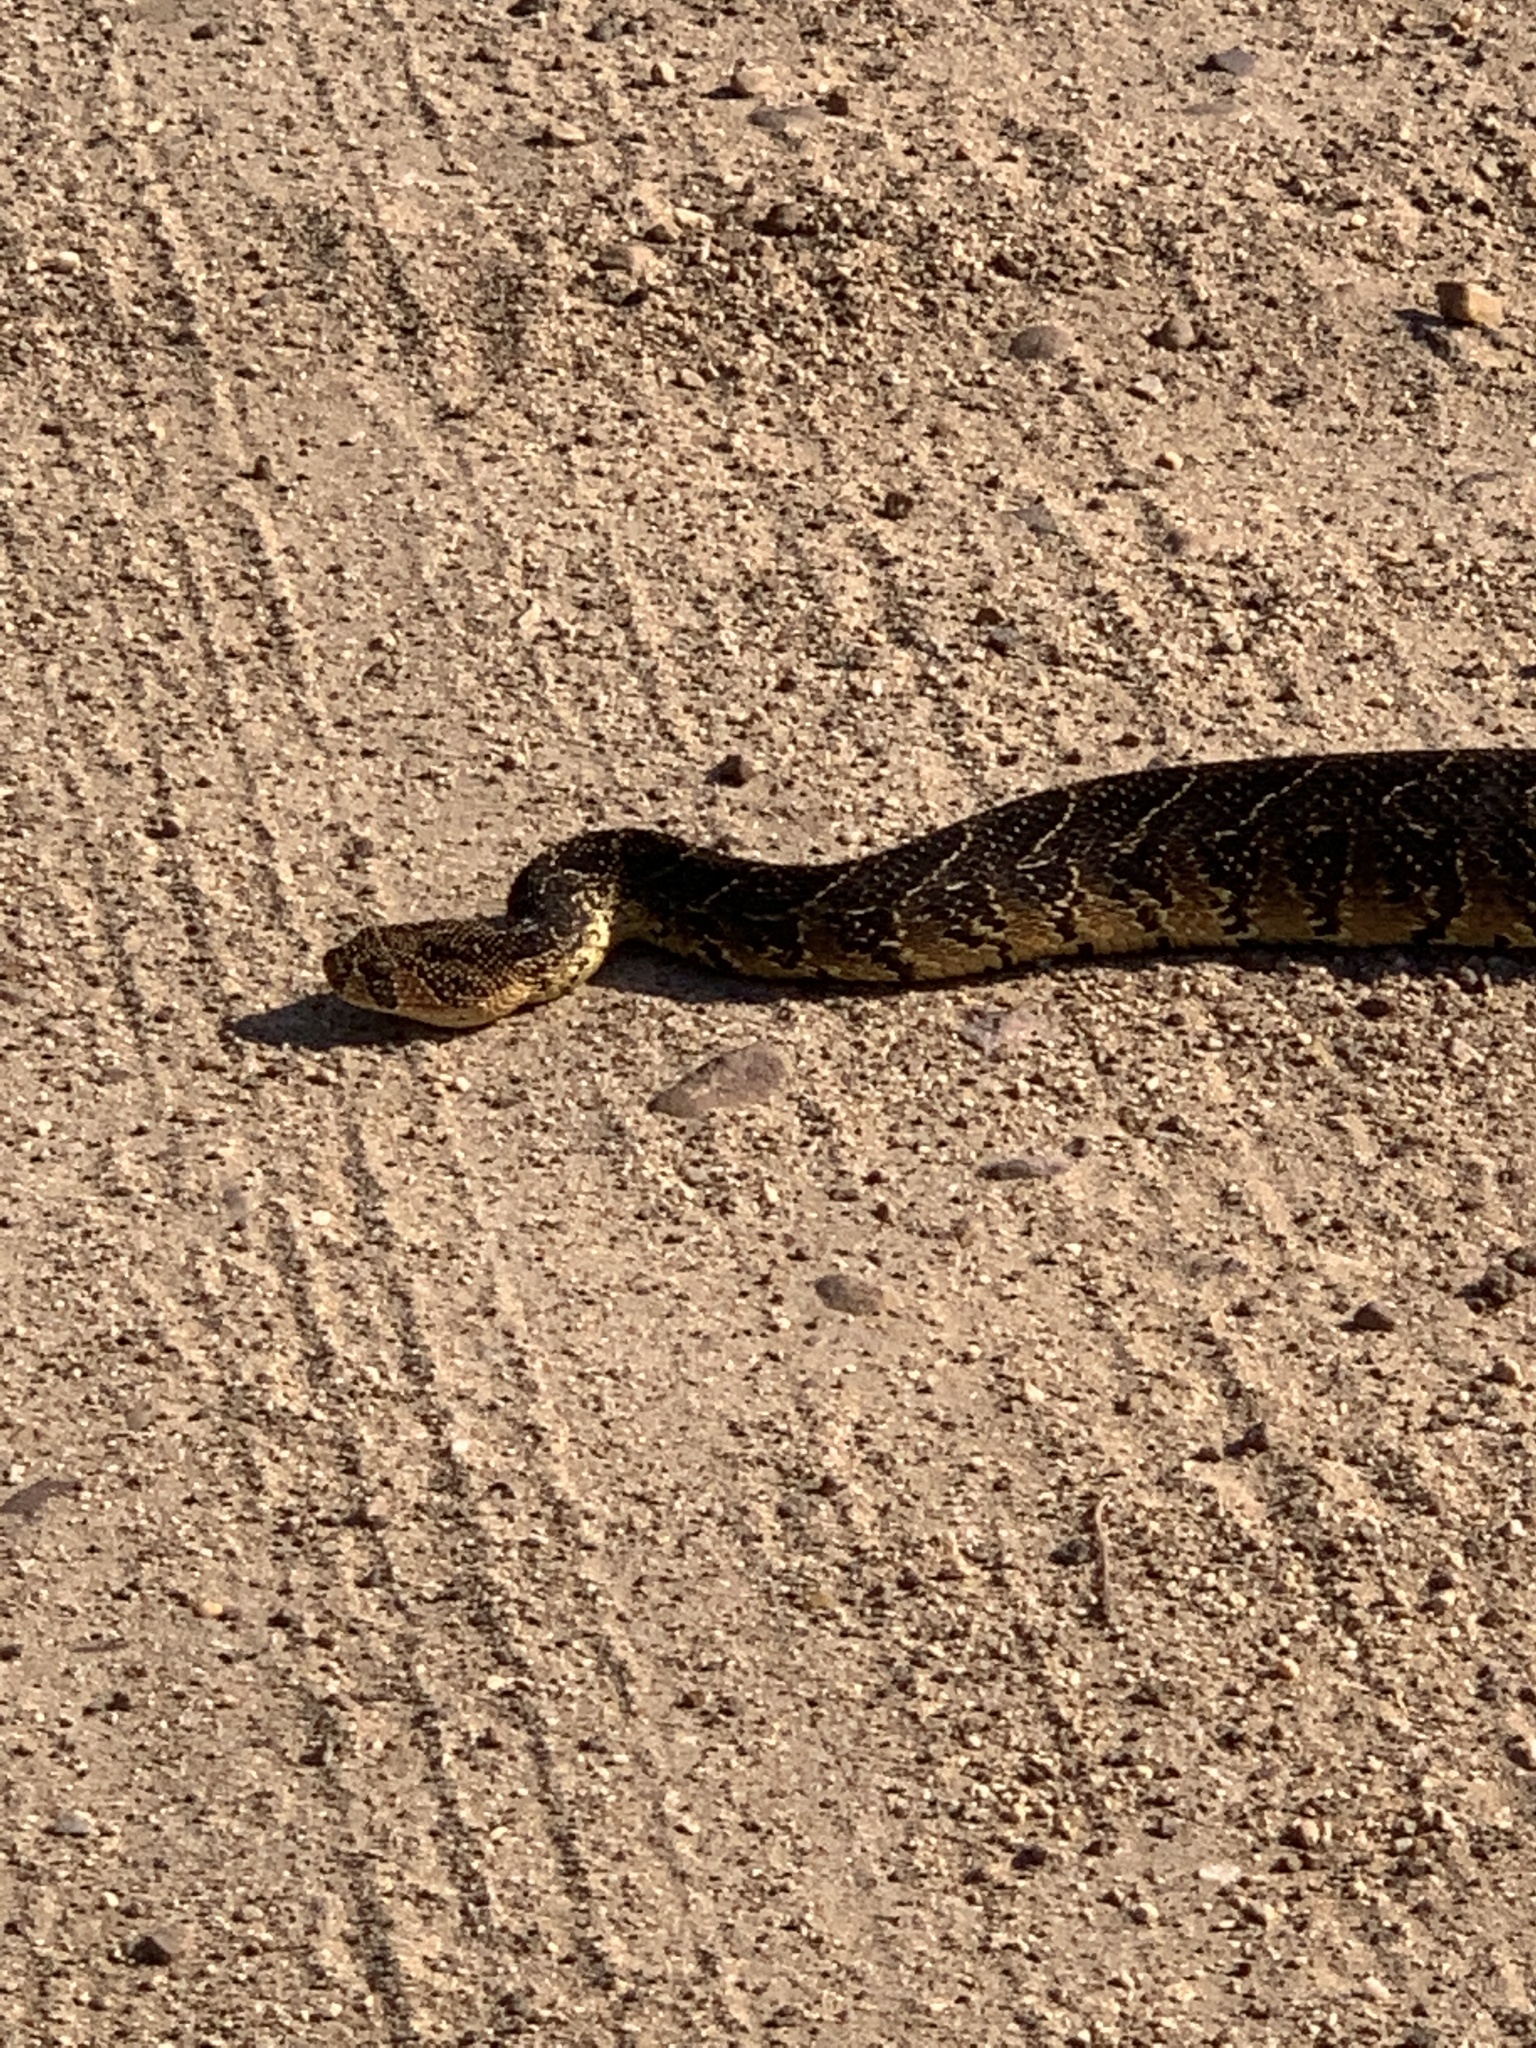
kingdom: Animalia
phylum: Chordata
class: Squamata
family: Viperidae
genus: Bitis
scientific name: Bitis arietans
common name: Puff adder
